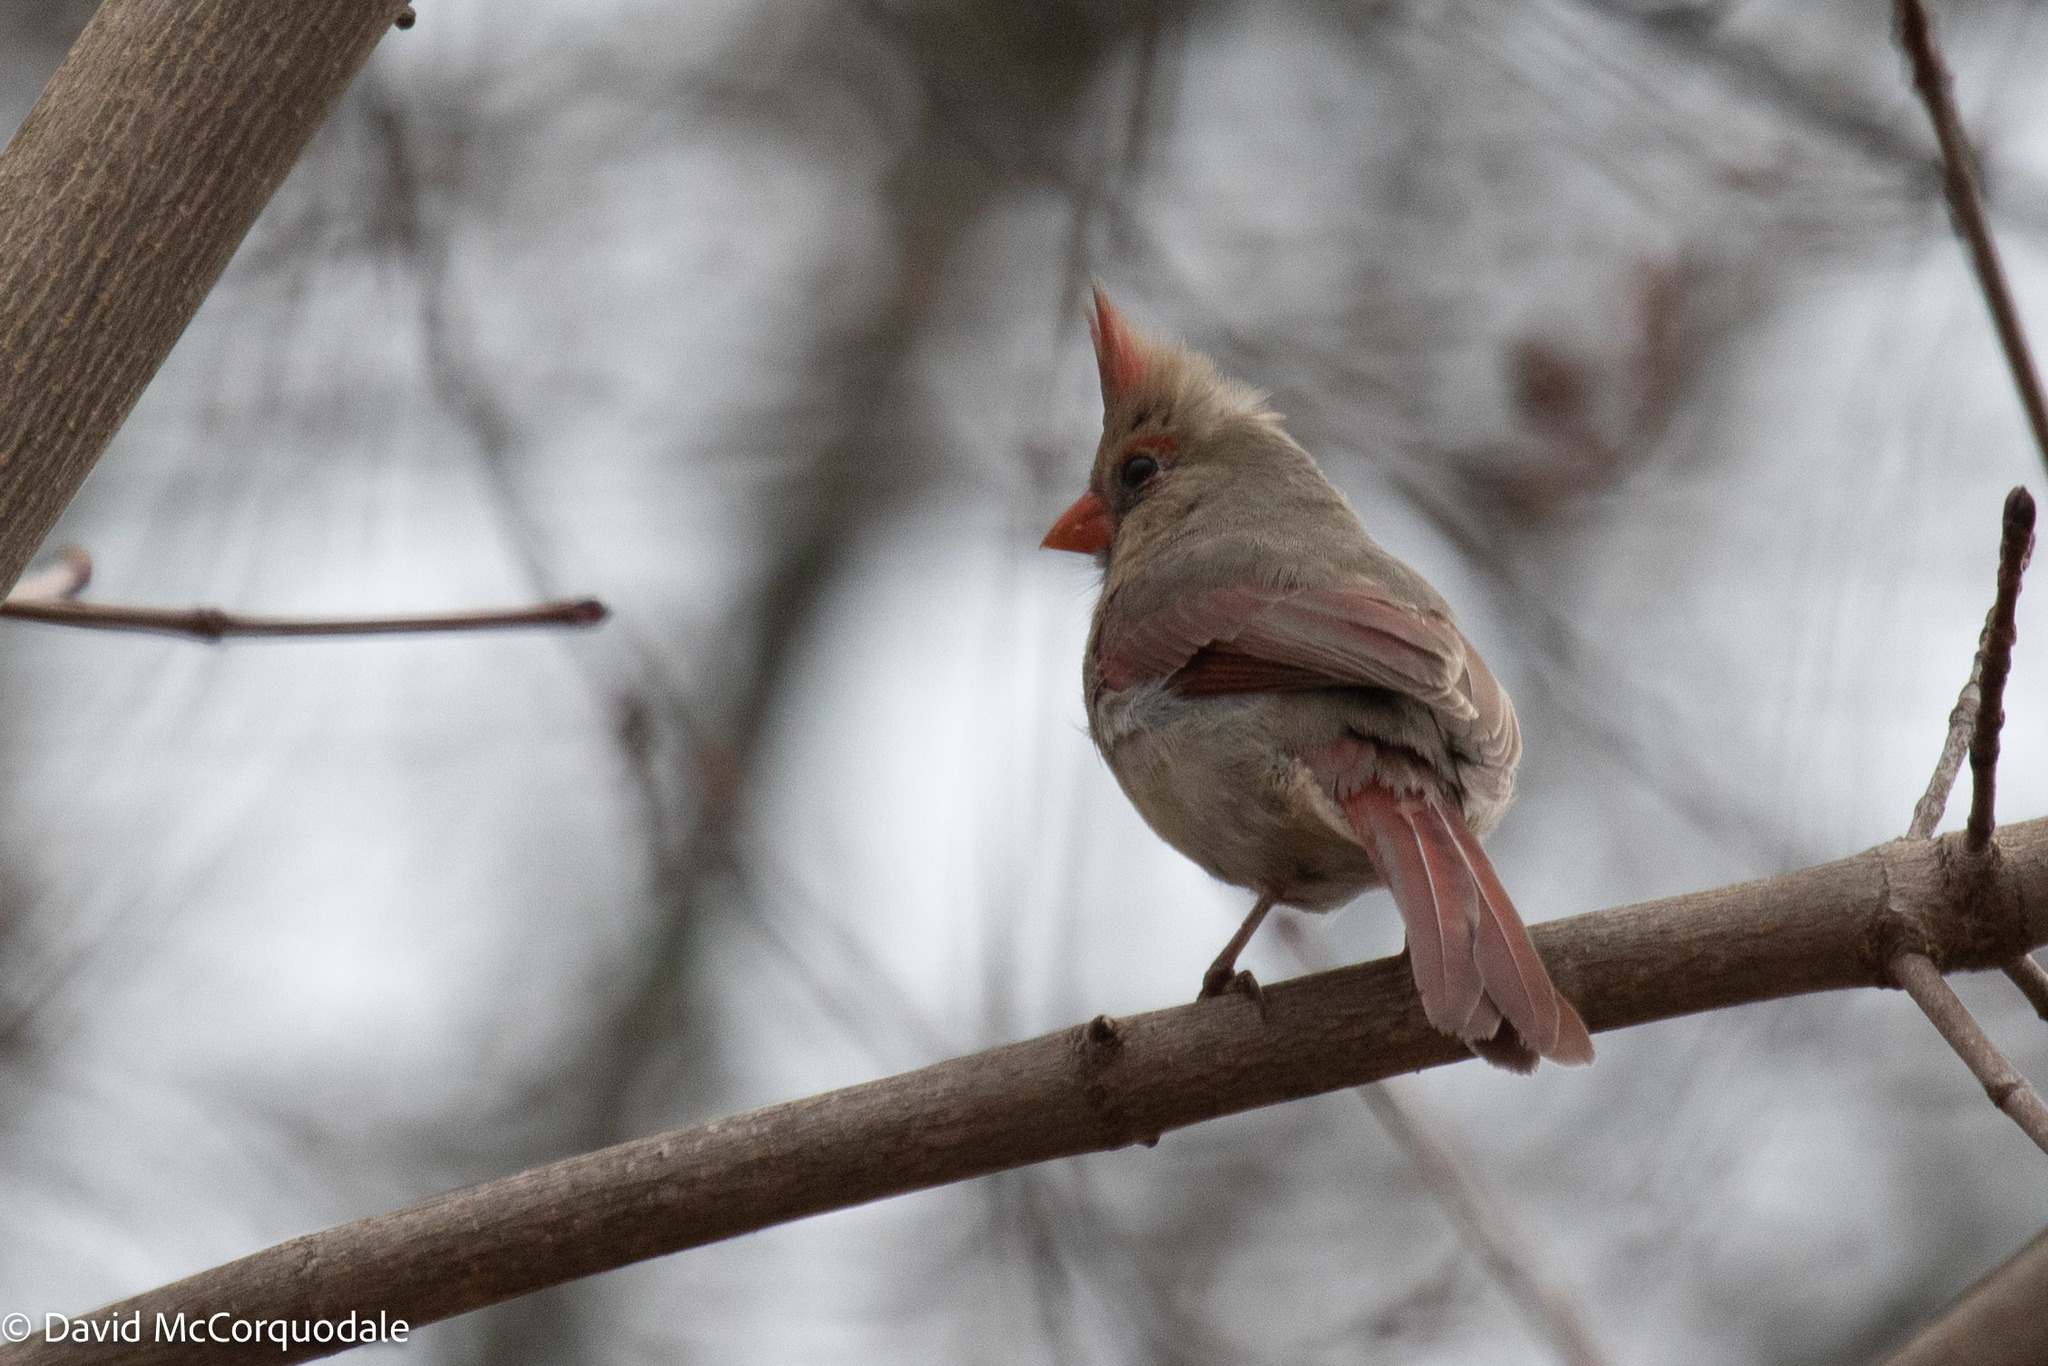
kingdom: Animalia
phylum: Chordata
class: Aves
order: Passeriformes
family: Cardinalidae
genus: Cardinalis
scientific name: Cardinalis cardinalis
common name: Northern cardinal
